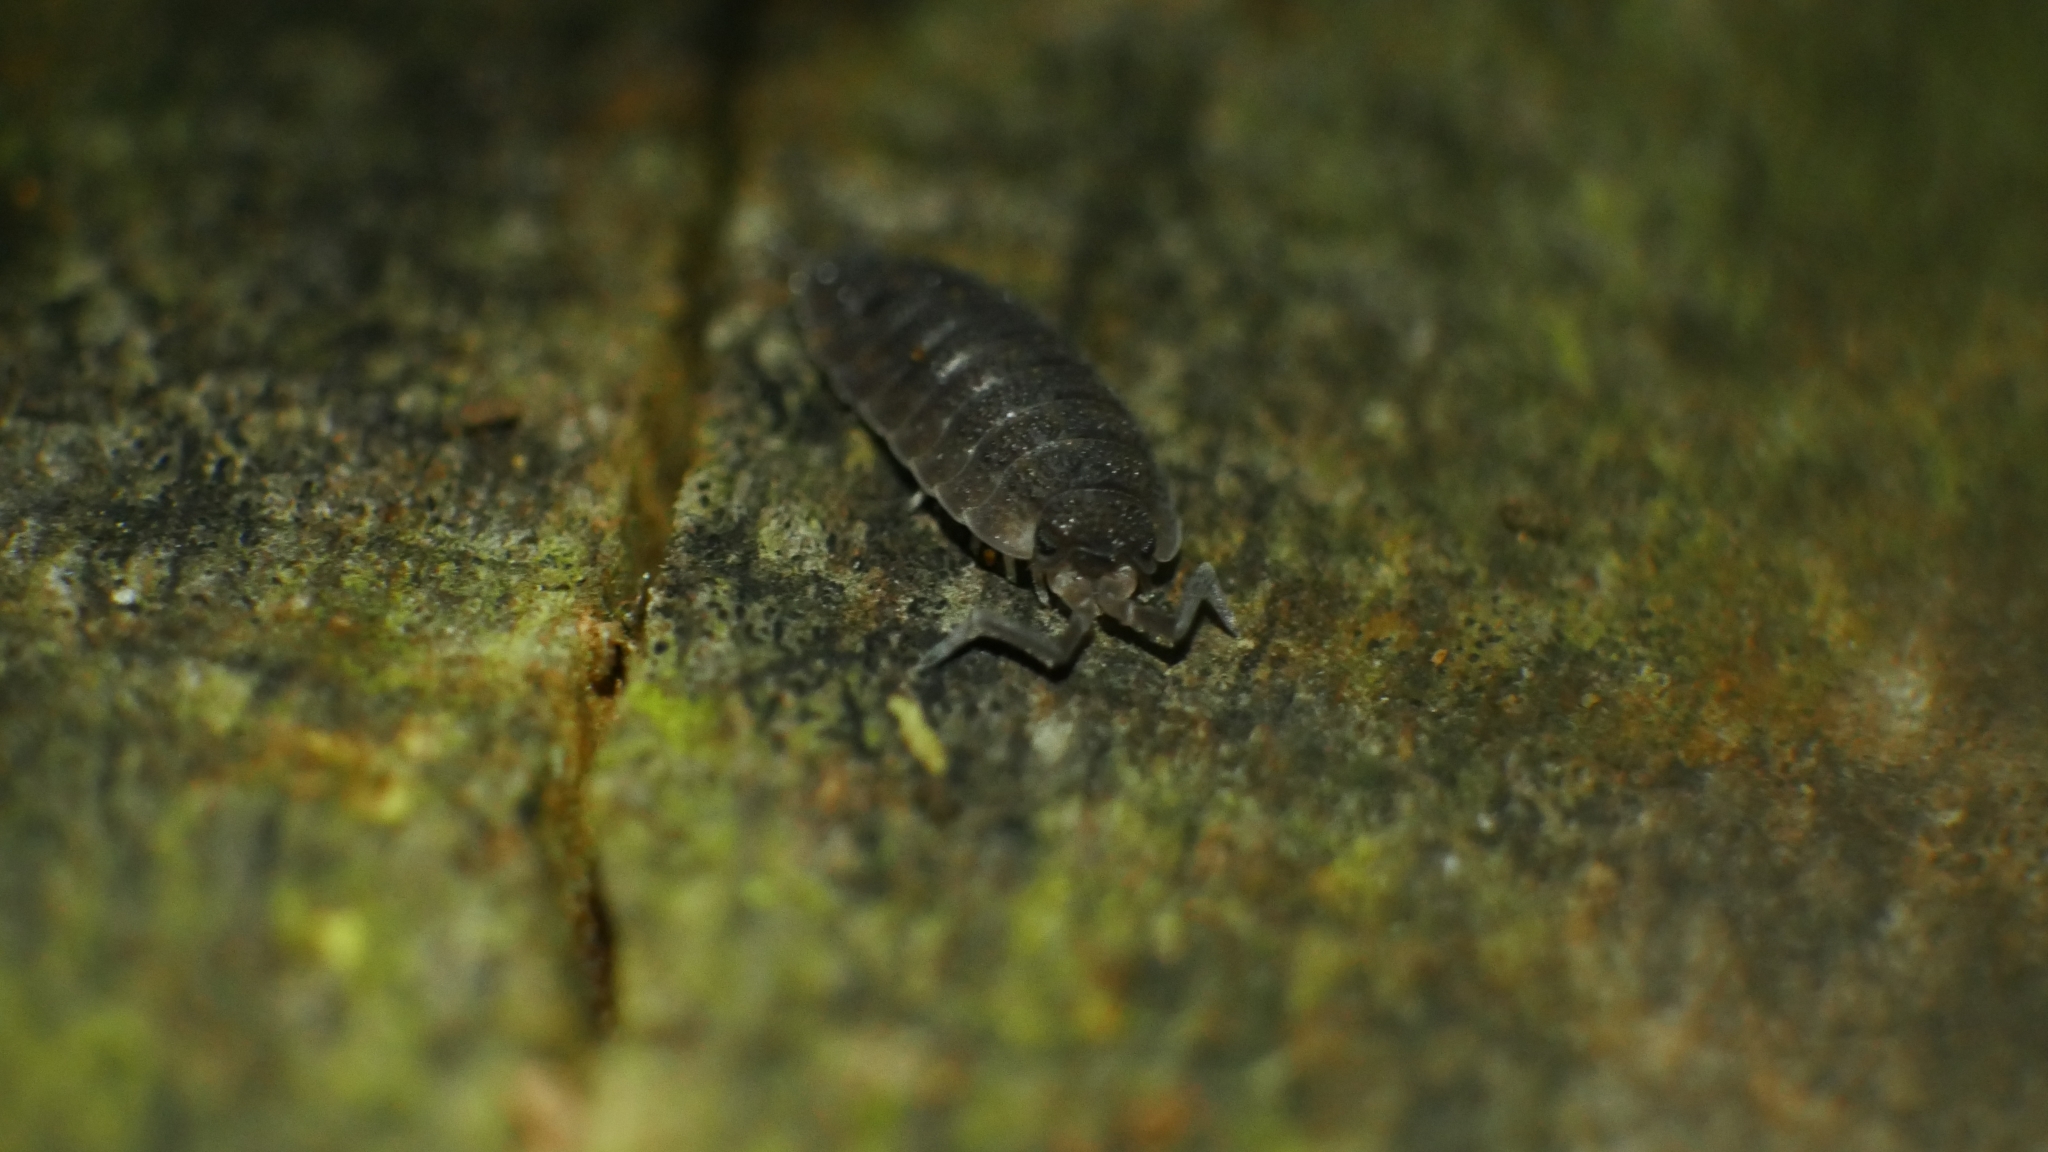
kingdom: Animalia
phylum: Arthropoda
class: Malacostraca
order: Isopoda
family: Porcellionidae
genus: Porcellio
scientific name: Porcellio scaber
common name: Common rough woodlouse
